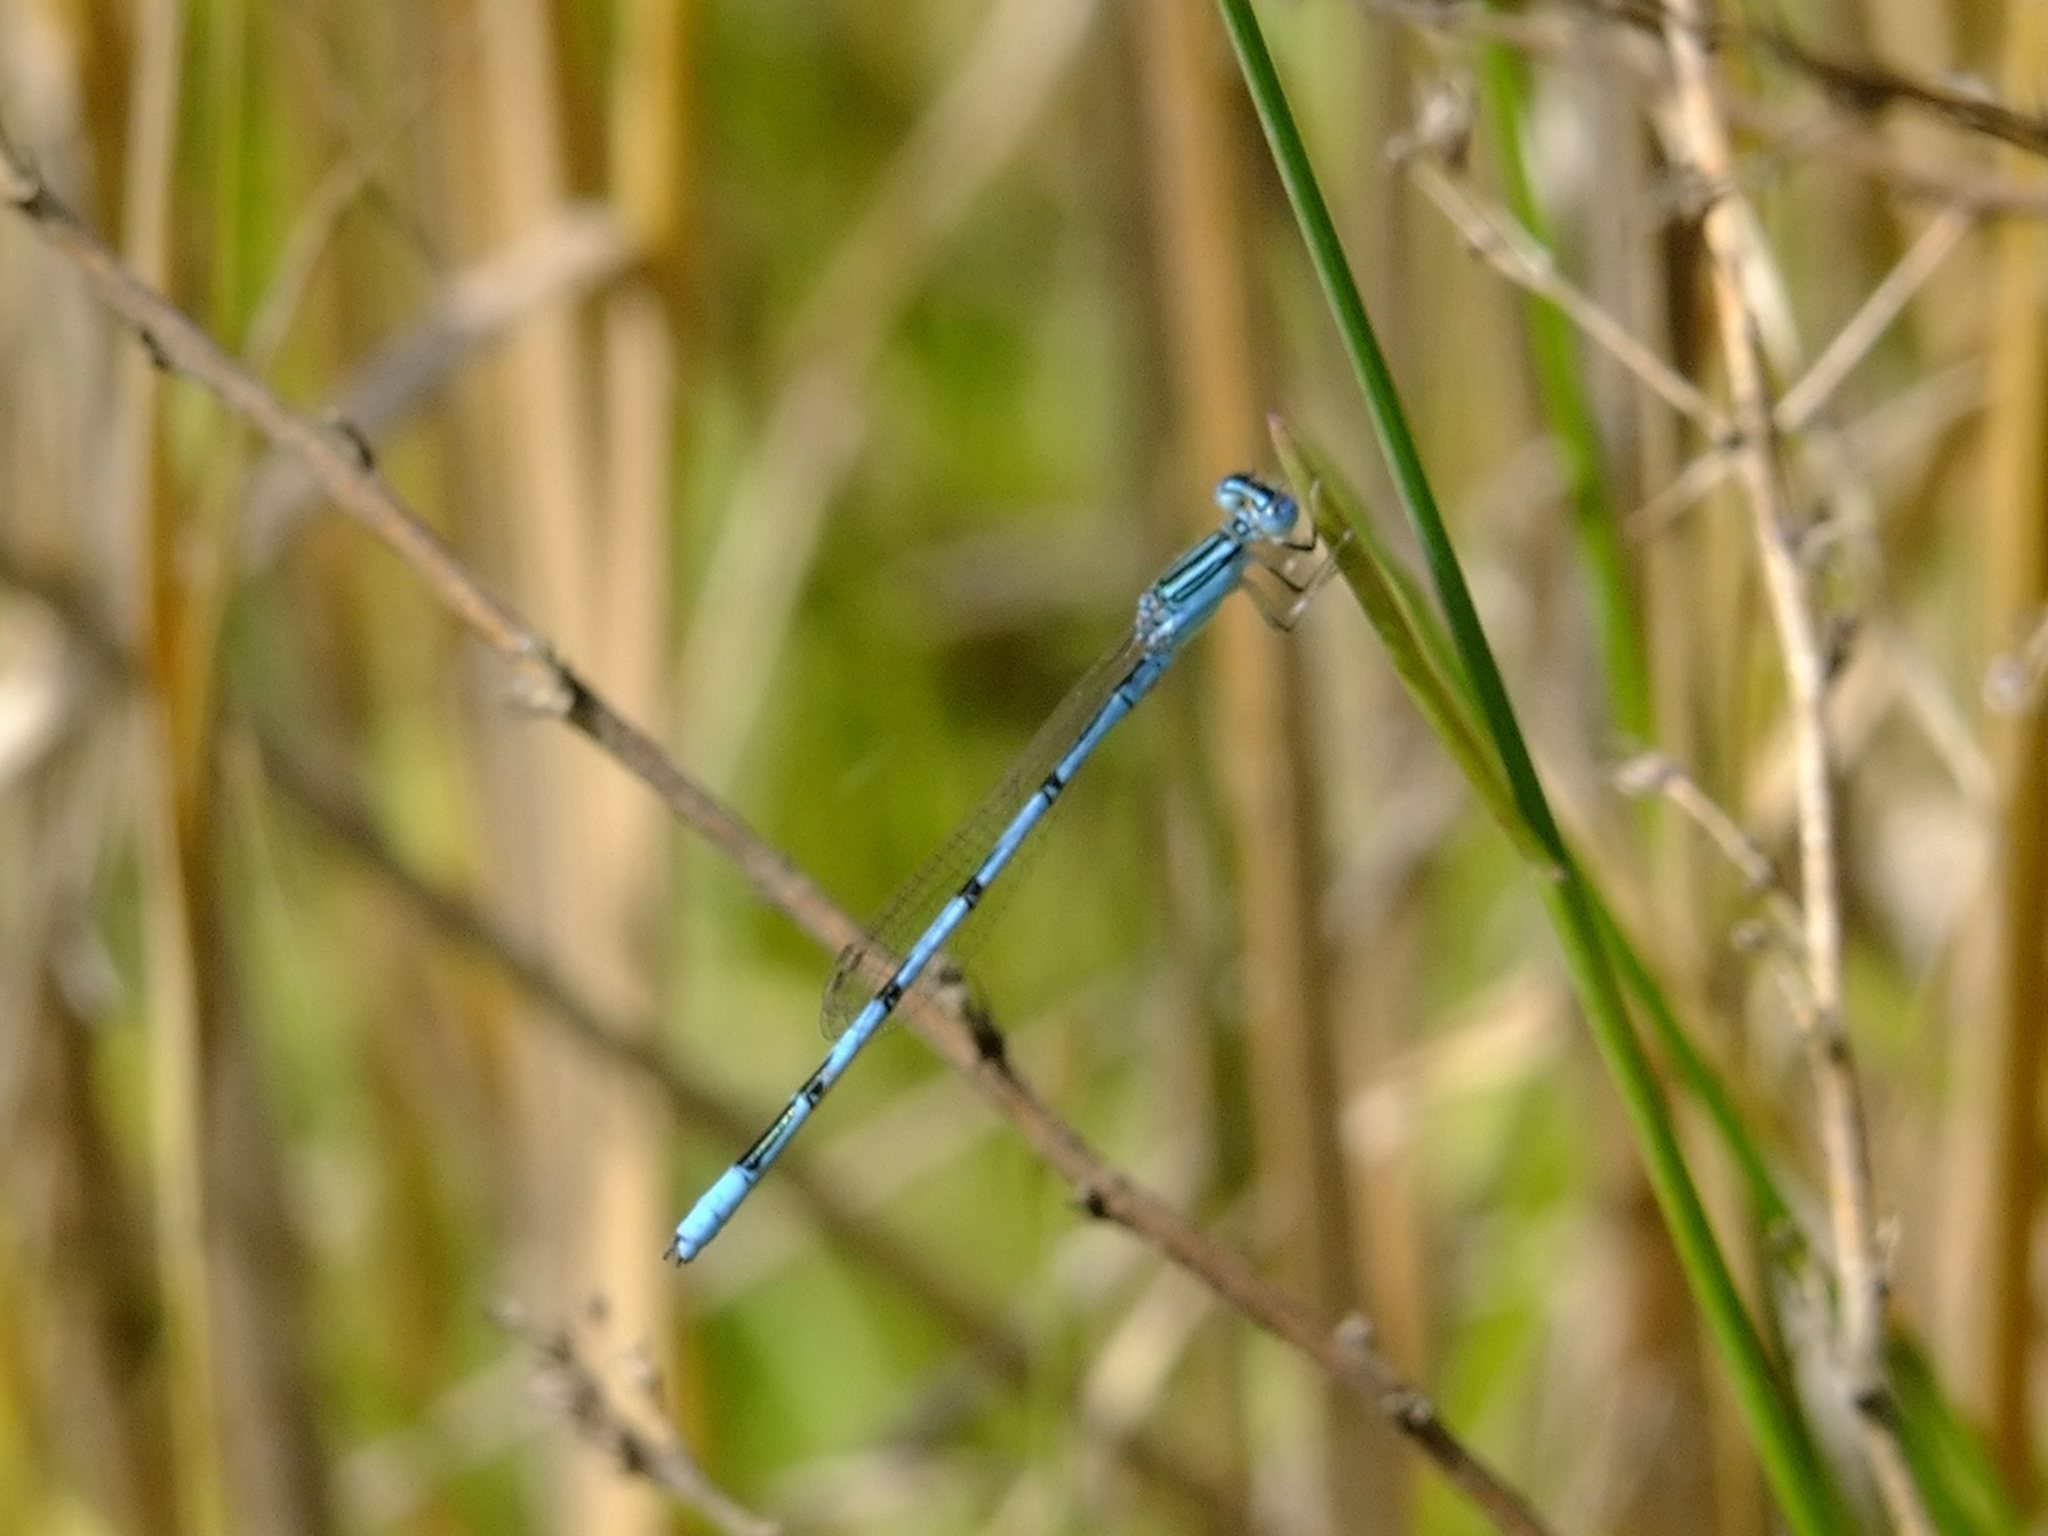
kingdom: Animalia
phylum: Arthropoda
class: Insecta
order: Odonata
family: Coenagrionidae
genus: Enallagma
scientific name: Enallagma basidens
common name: Double-striped bluet
